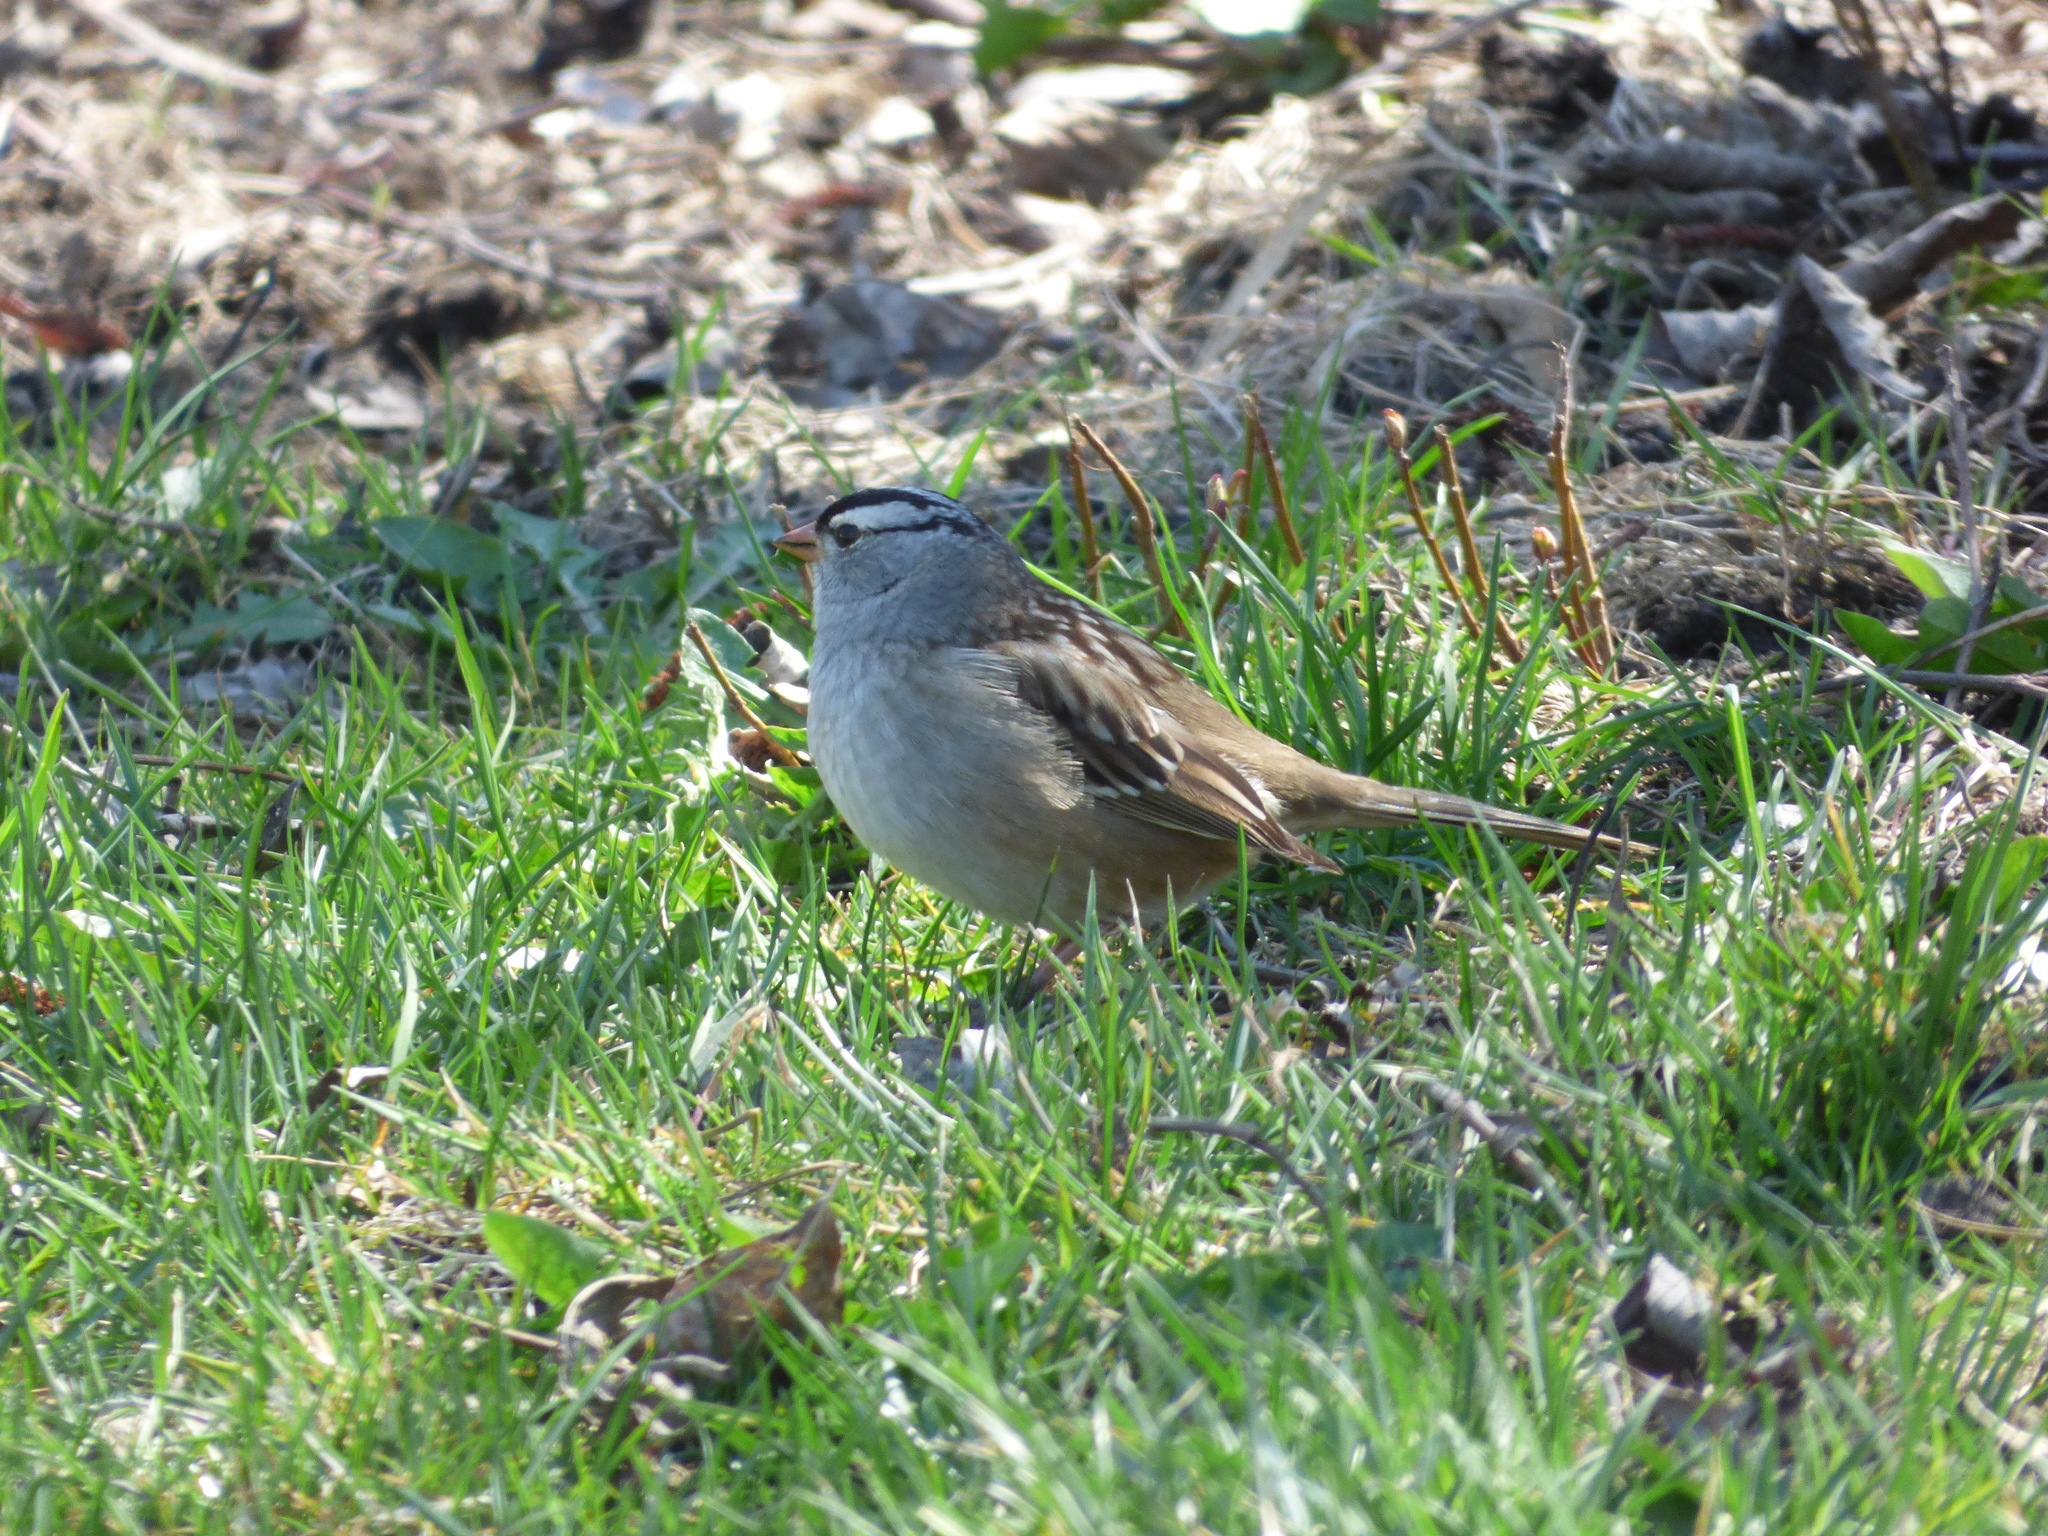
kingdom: Animalia
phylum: Chordata
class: Aves
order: Passeriformes
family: Passerellidae
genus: Zonotrichia
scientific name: Zonotrichia leucophrys
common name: White-crowned sparrow
